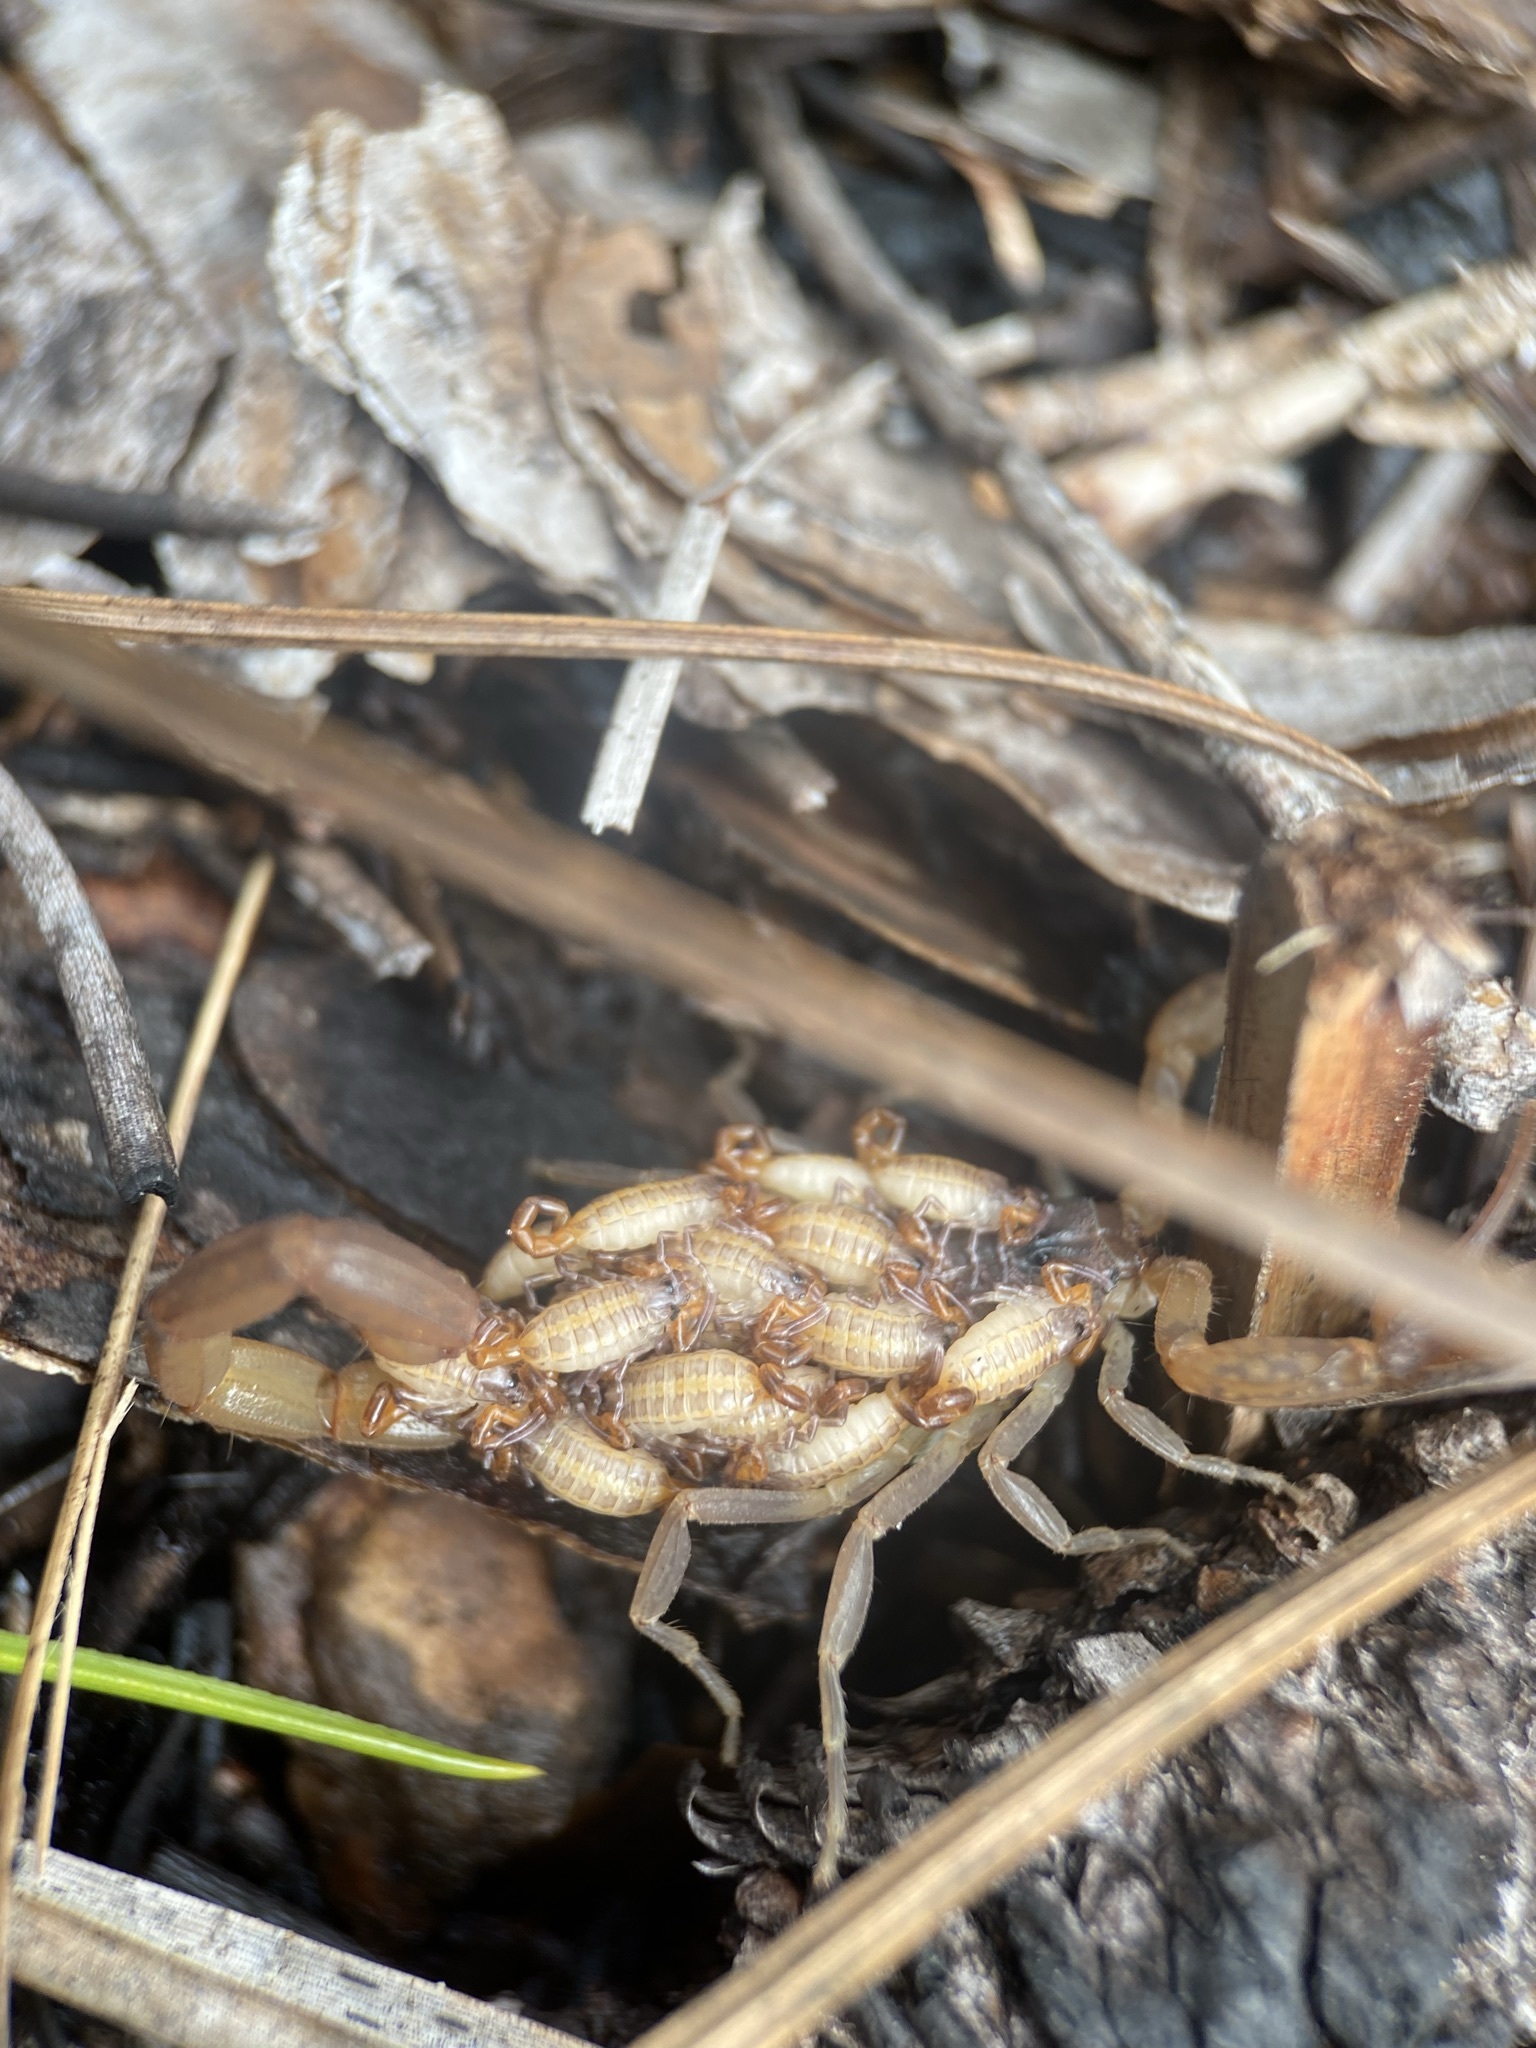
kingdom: Animalia
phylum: Arthropoda
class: Arachnida
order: Scorpiones
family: Buthidae
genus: Centruroides
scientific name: Centruroides hentzi
